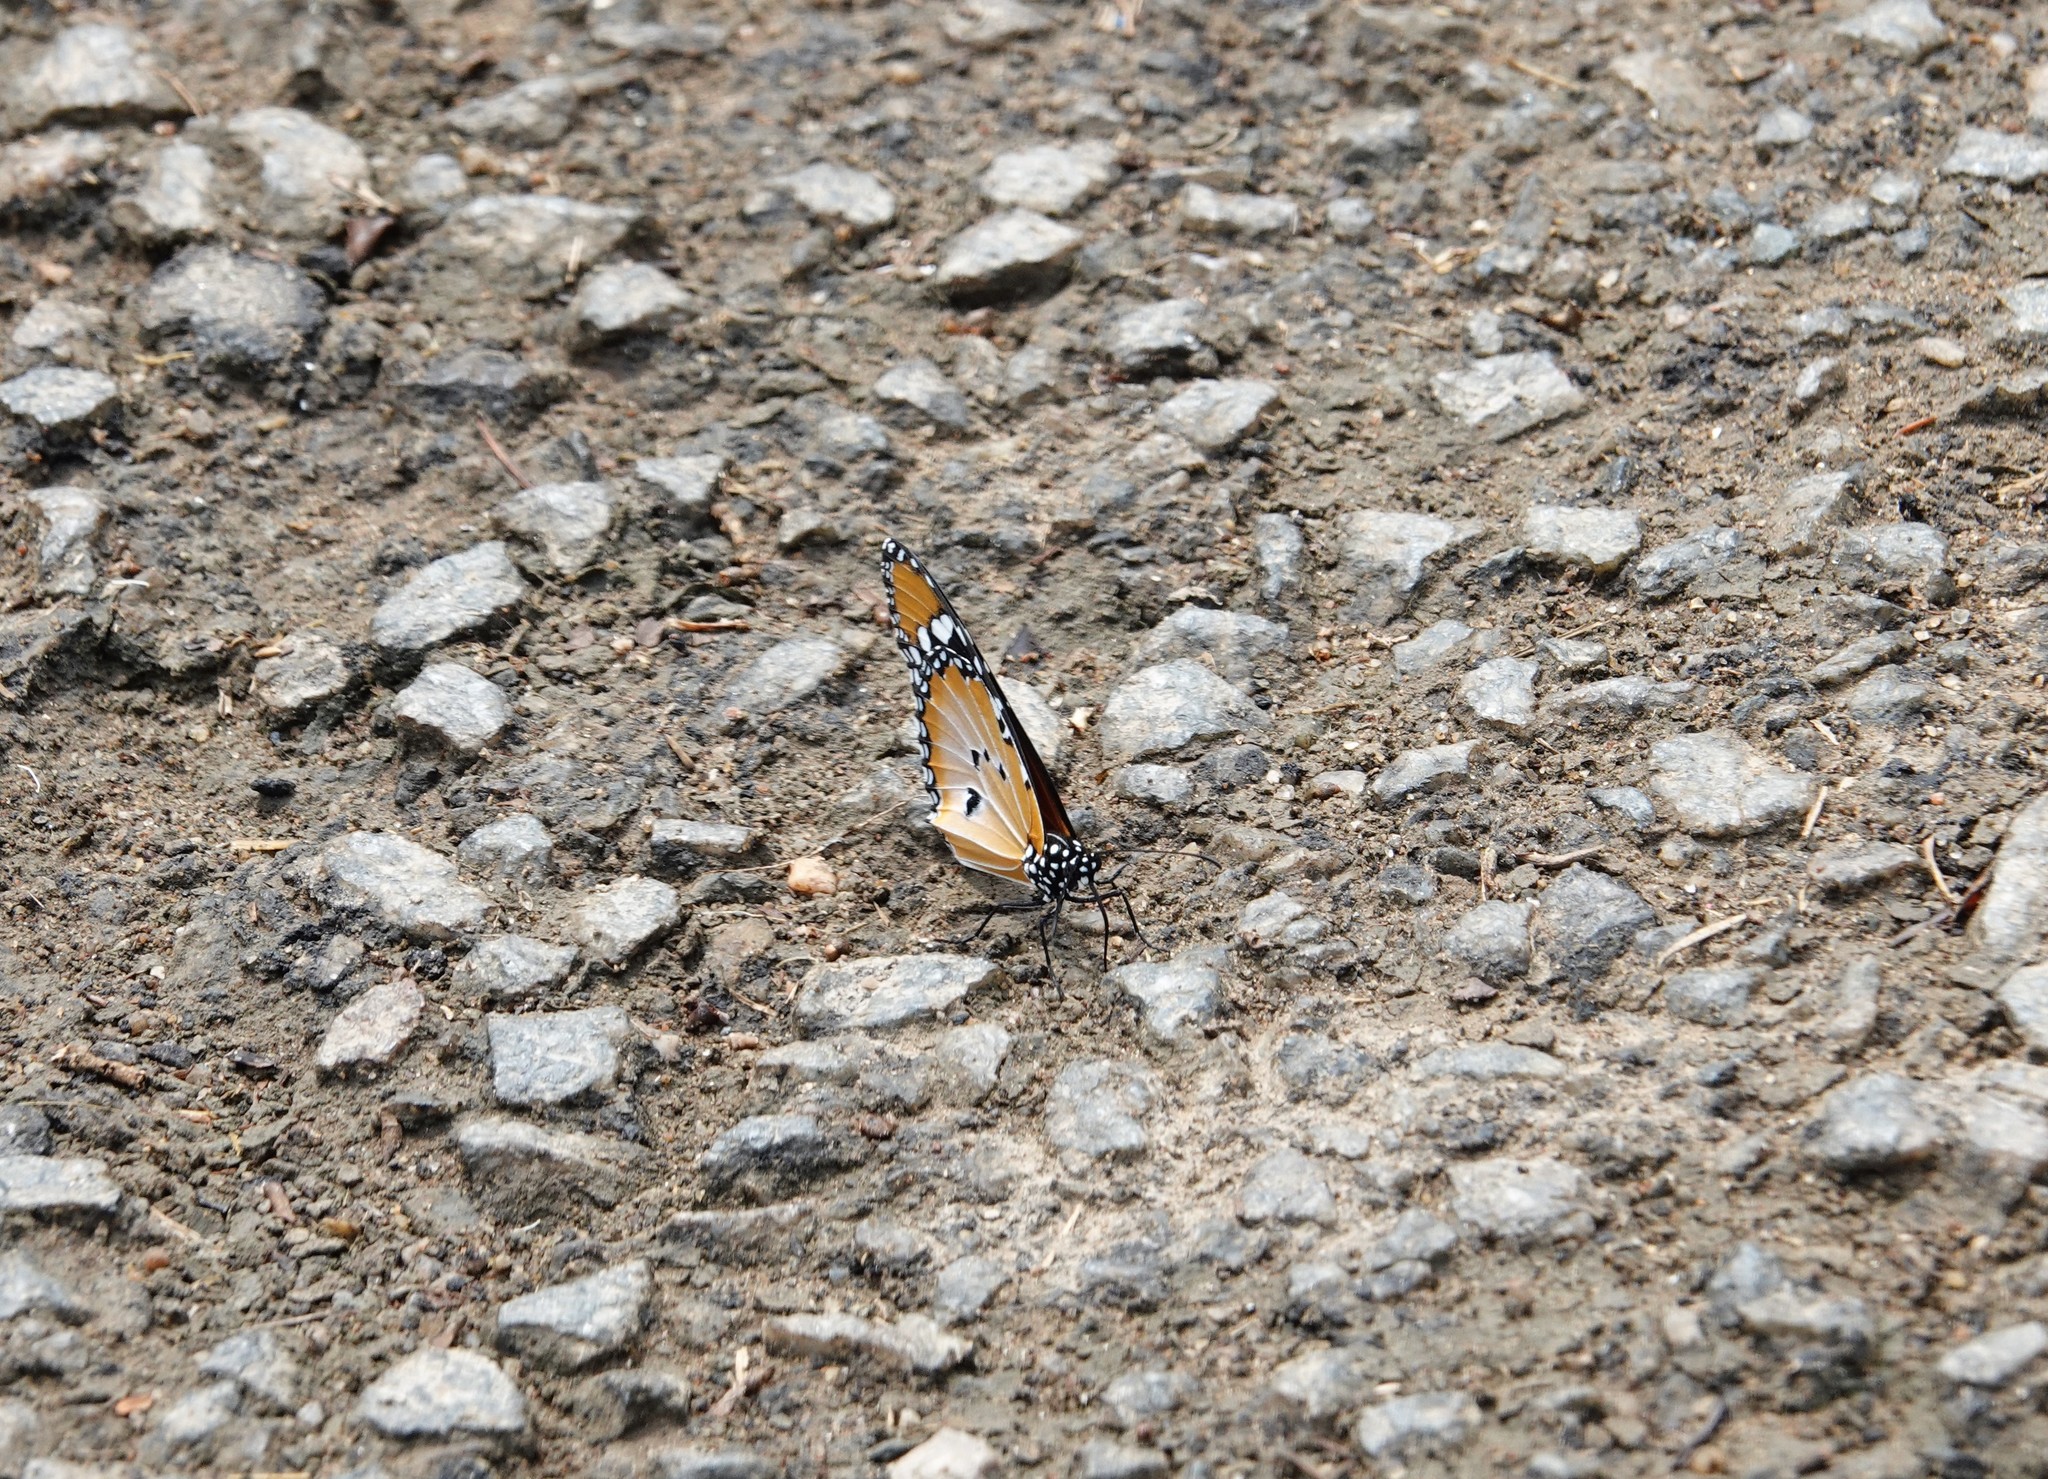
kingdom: Animalia
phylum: Arthropoda
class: Insecta
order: Lepidoptera
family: Nymphalidae
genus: Danaus
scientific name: Danaus chrysippus
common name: Plain tiger
